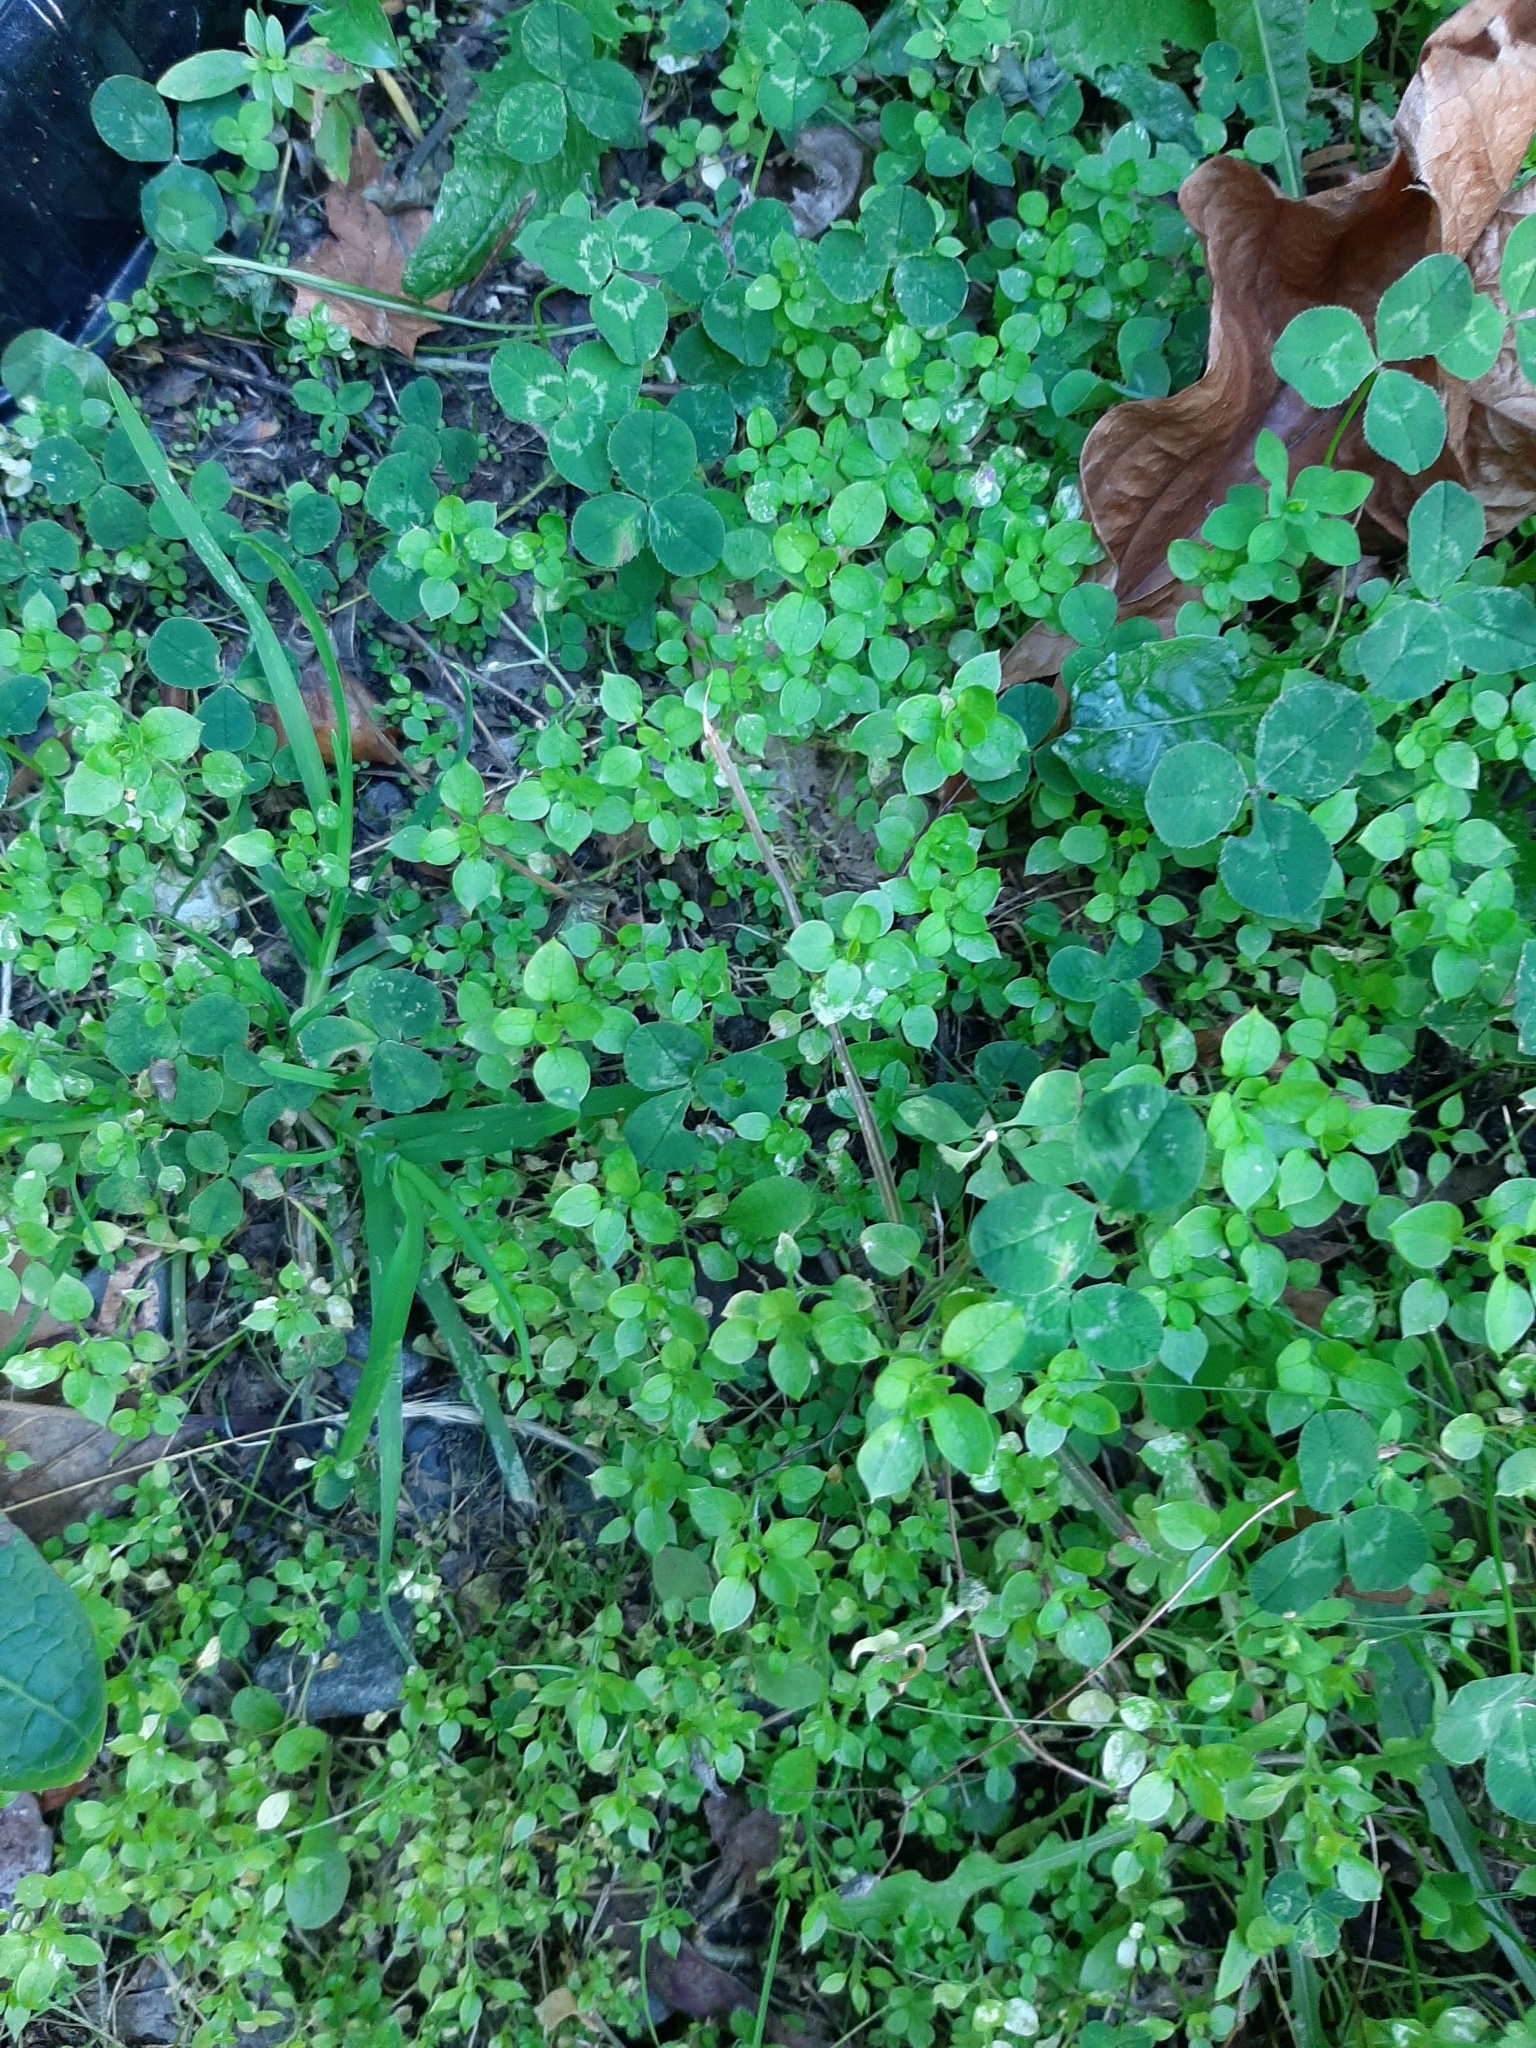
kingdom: Plantae
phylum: Tracheophyta
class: Magnoliopsida
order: Caryophyllales
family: Caryophyllaceae
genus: Stellaria
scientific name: Stellaria media
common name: Common chickweed
